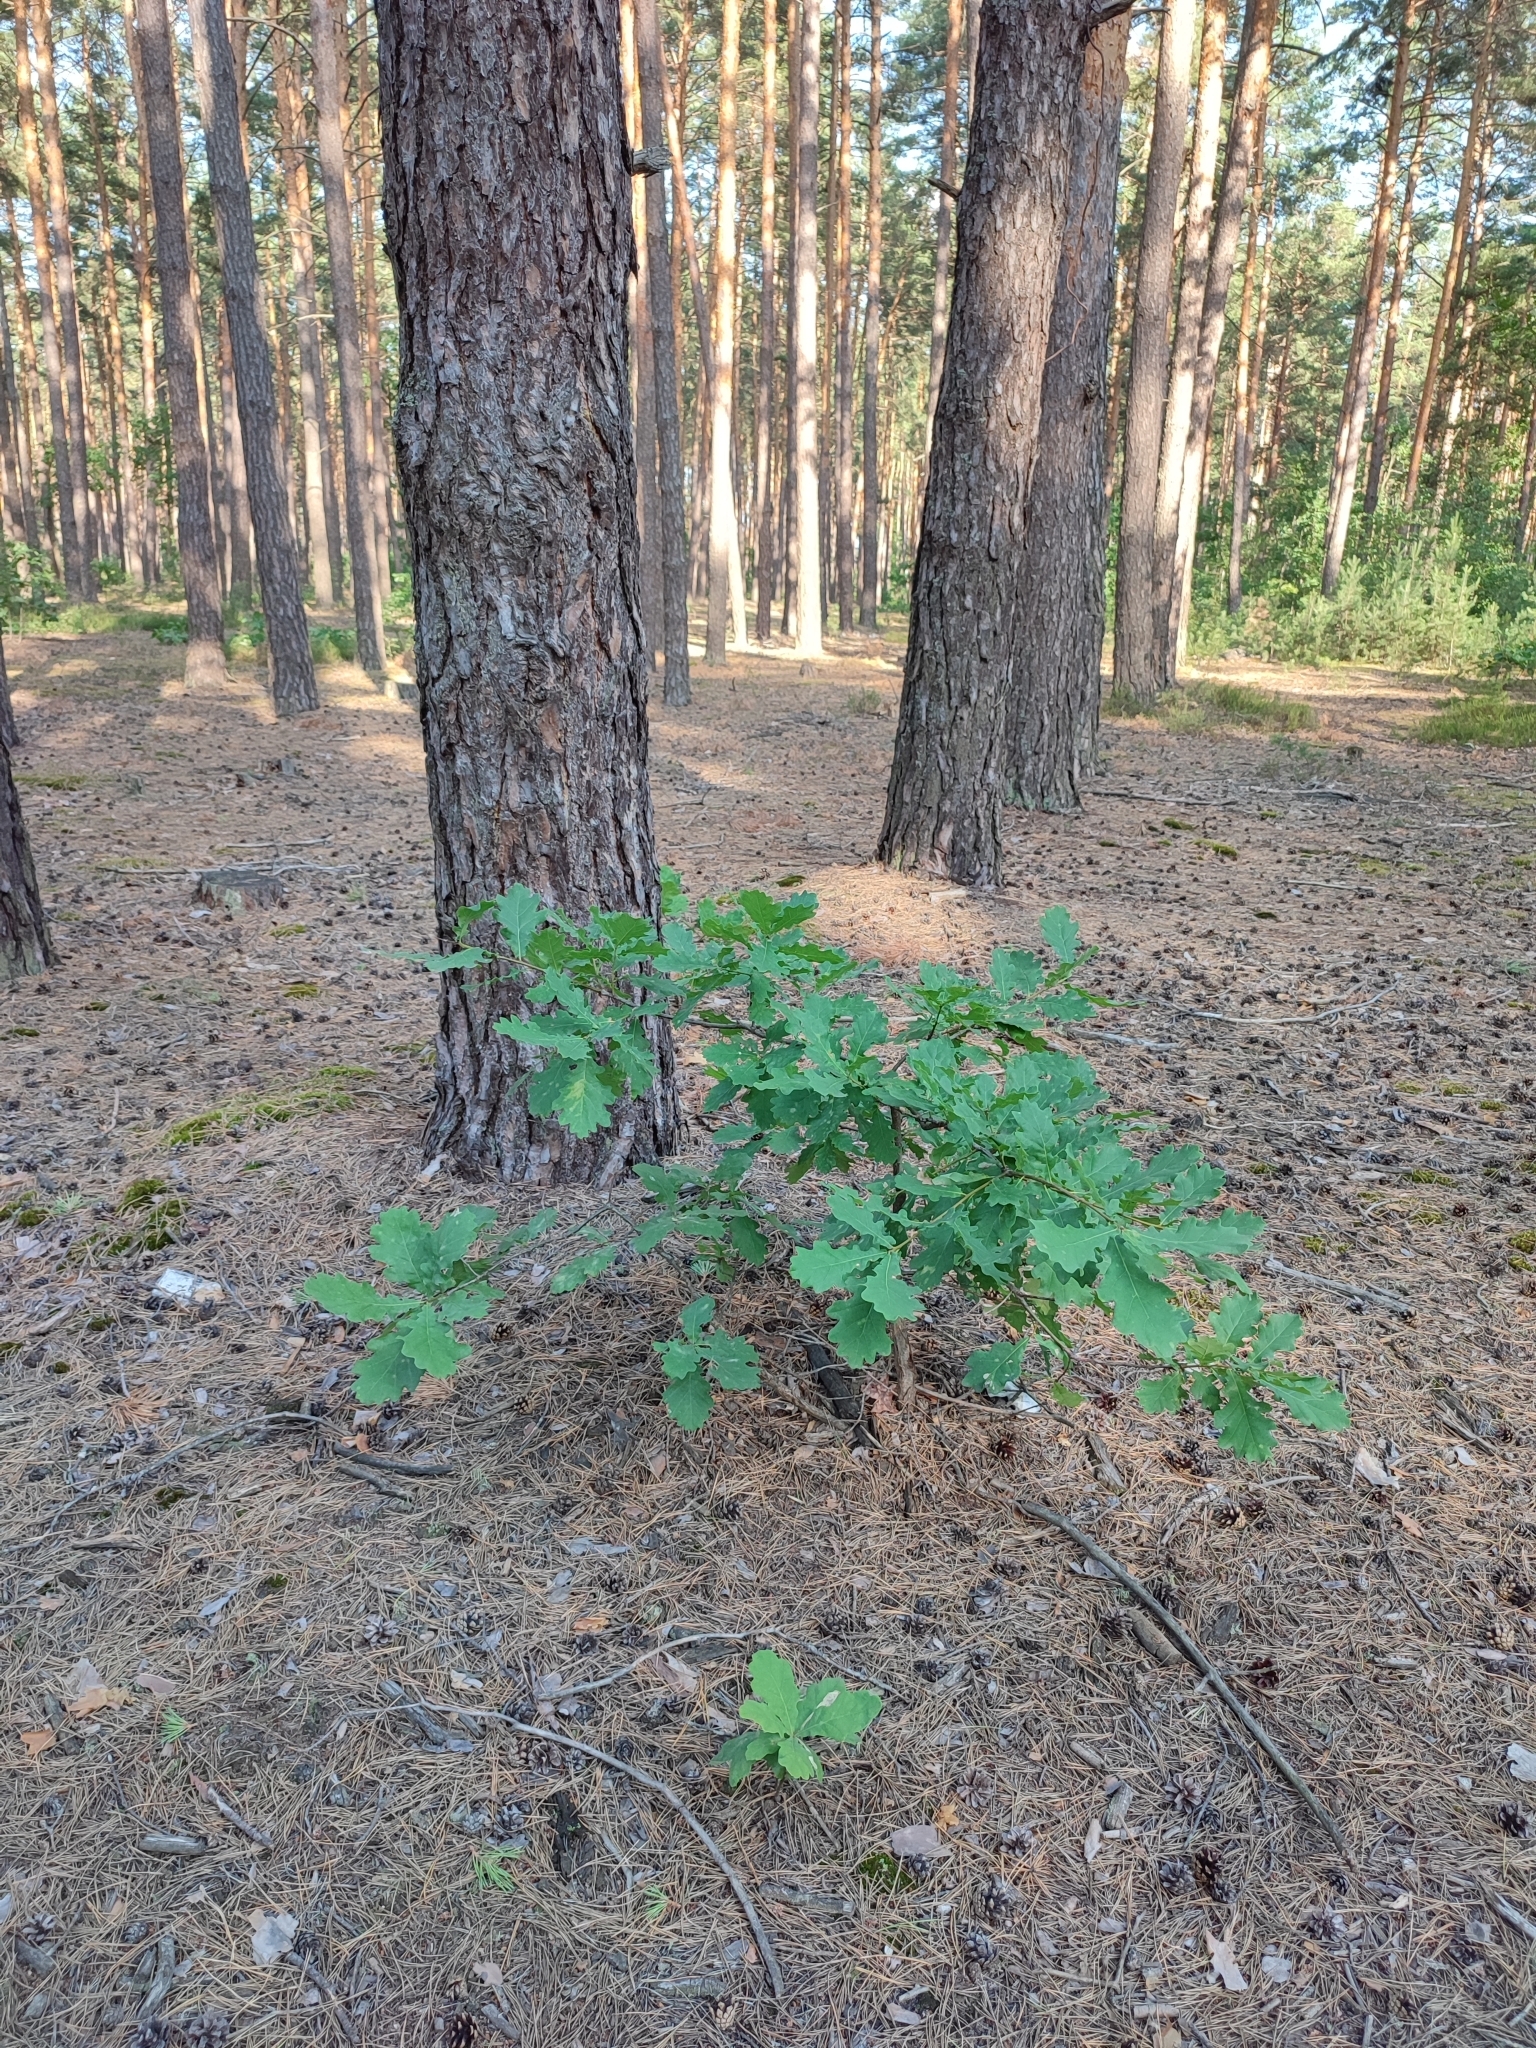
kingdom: Plantae
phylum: Tracheophyta
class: Magnoliopsida
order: Fagales
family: Fagaceae
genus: Quercus
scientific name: Quercus robur
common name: Pedunculate oak
